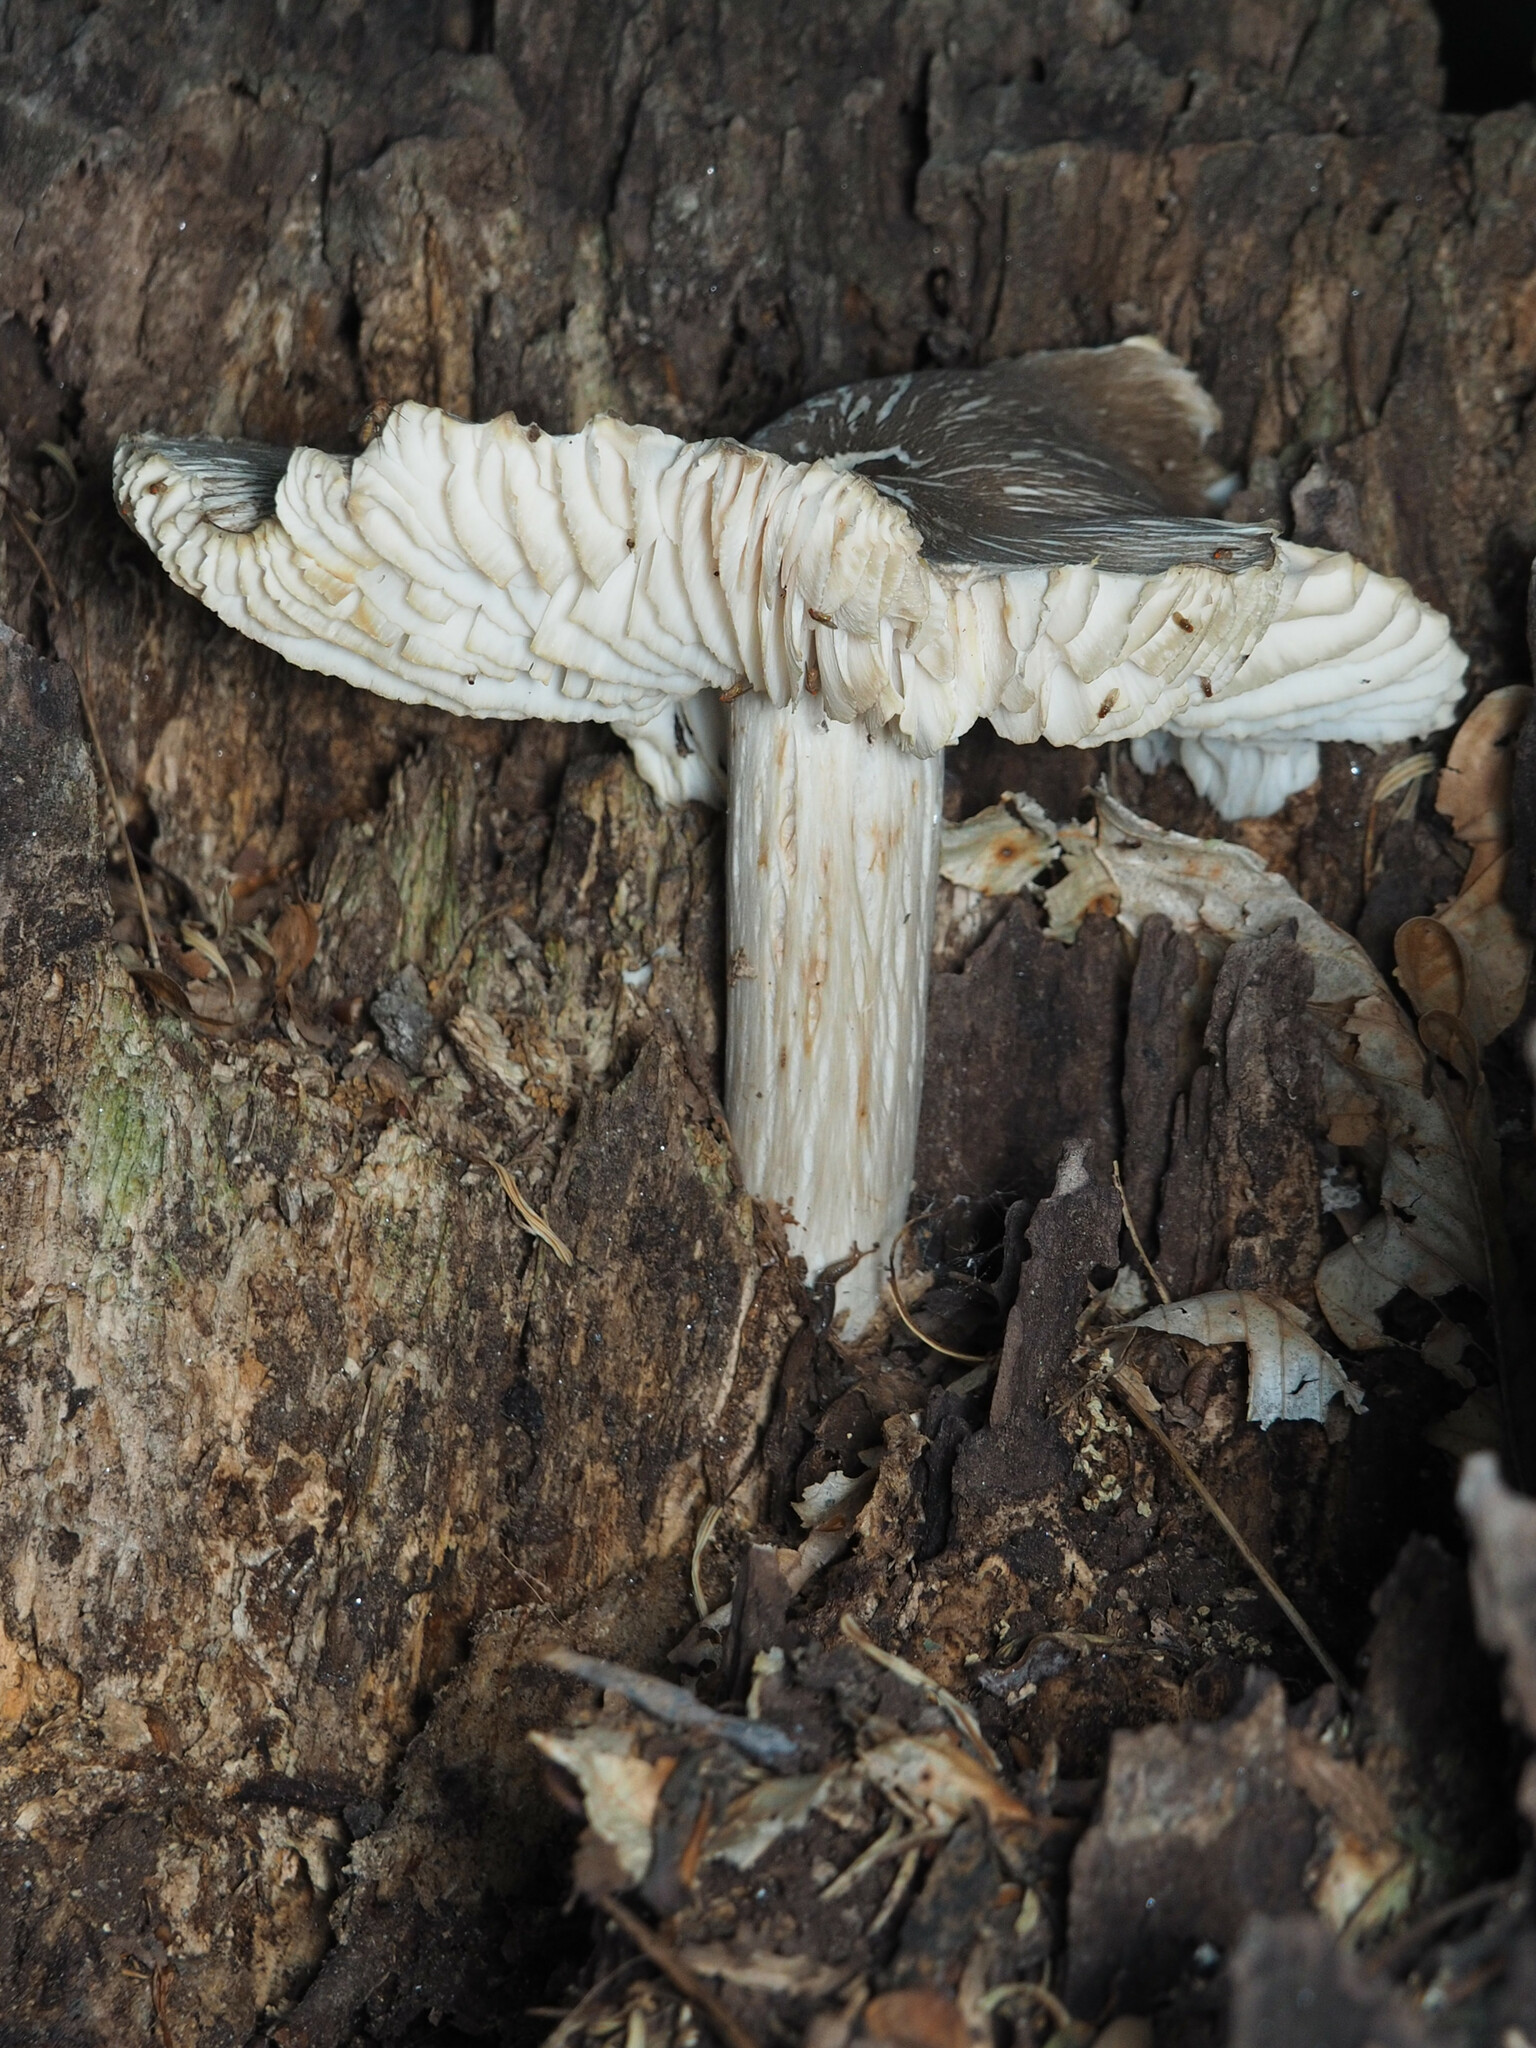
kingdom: Fungi
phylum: Basidiomycota
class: Agaricomycetes
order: Agaricales
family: Tricholomataceae
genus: Megacollybia
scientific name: Megacollybia rodmanii
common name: Eastern american platterful mushroom
